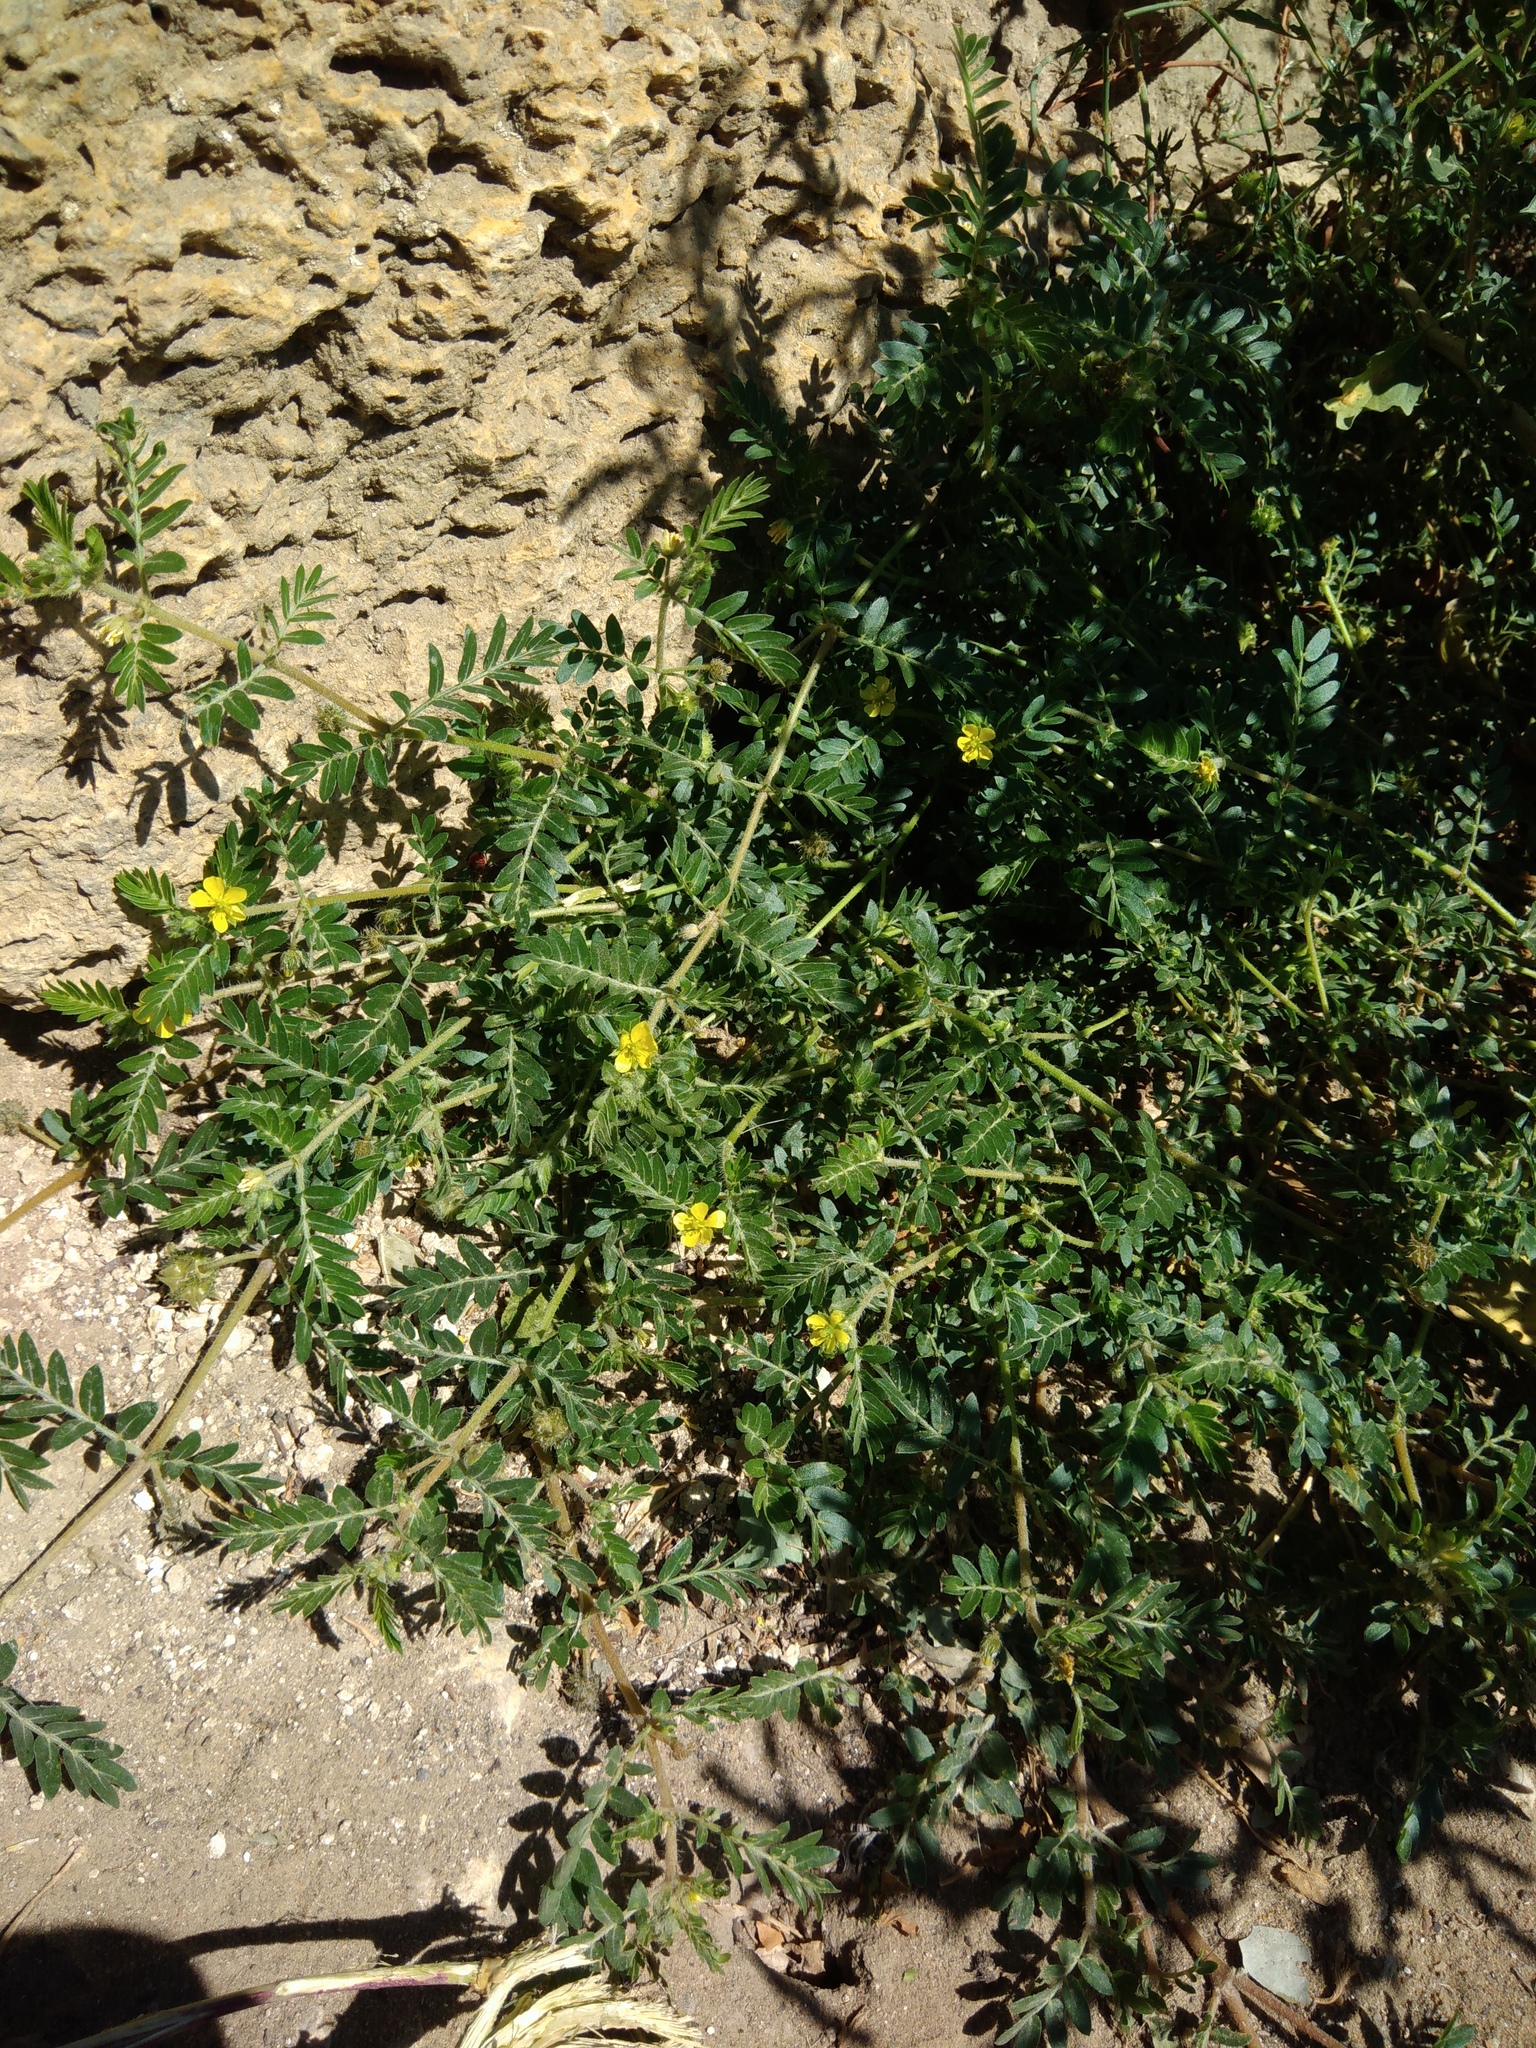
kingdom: Plantae
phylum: Tracheophyta
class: Magnoliopsida
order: Zygophyllales
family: Zygophyllaceae
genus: Tribulus
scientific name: Tribulus terrestris
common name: Puncturevine
